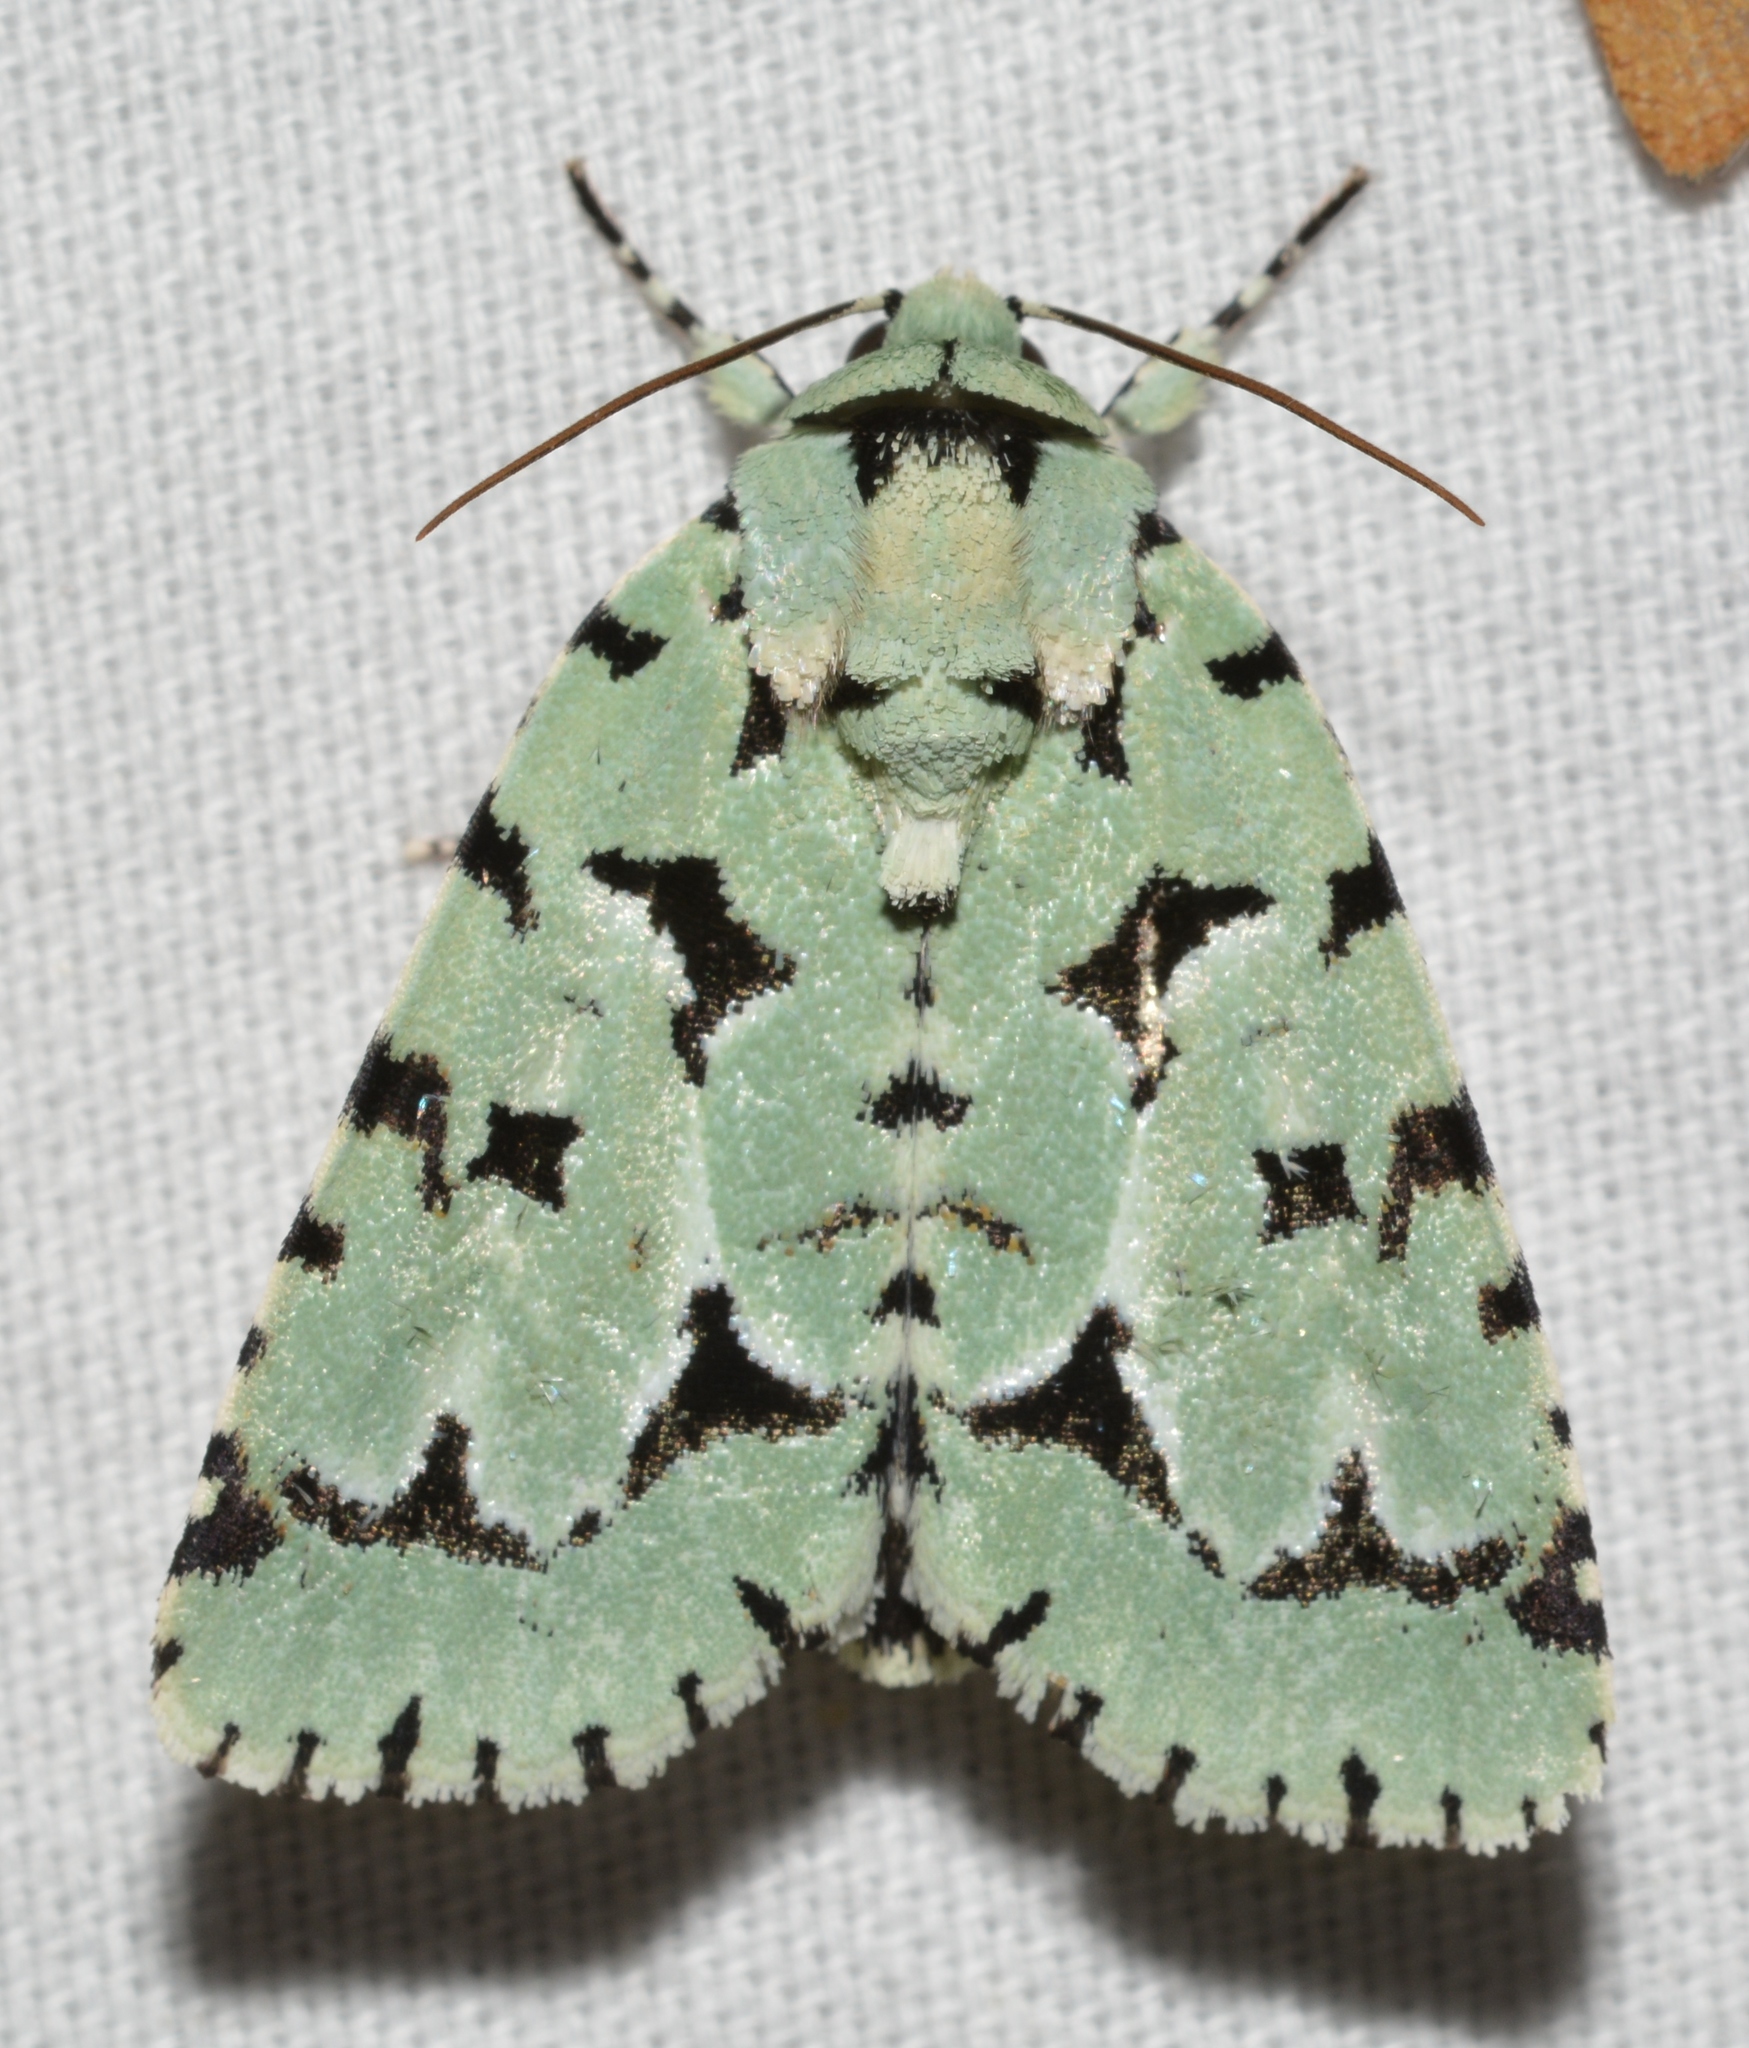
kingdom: Animalia
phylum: Arthropoda
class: Insecta
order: Lepidoptera
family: Noctuidae
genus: Acronicta
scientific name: Acronicta fallax
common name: Green marvel
